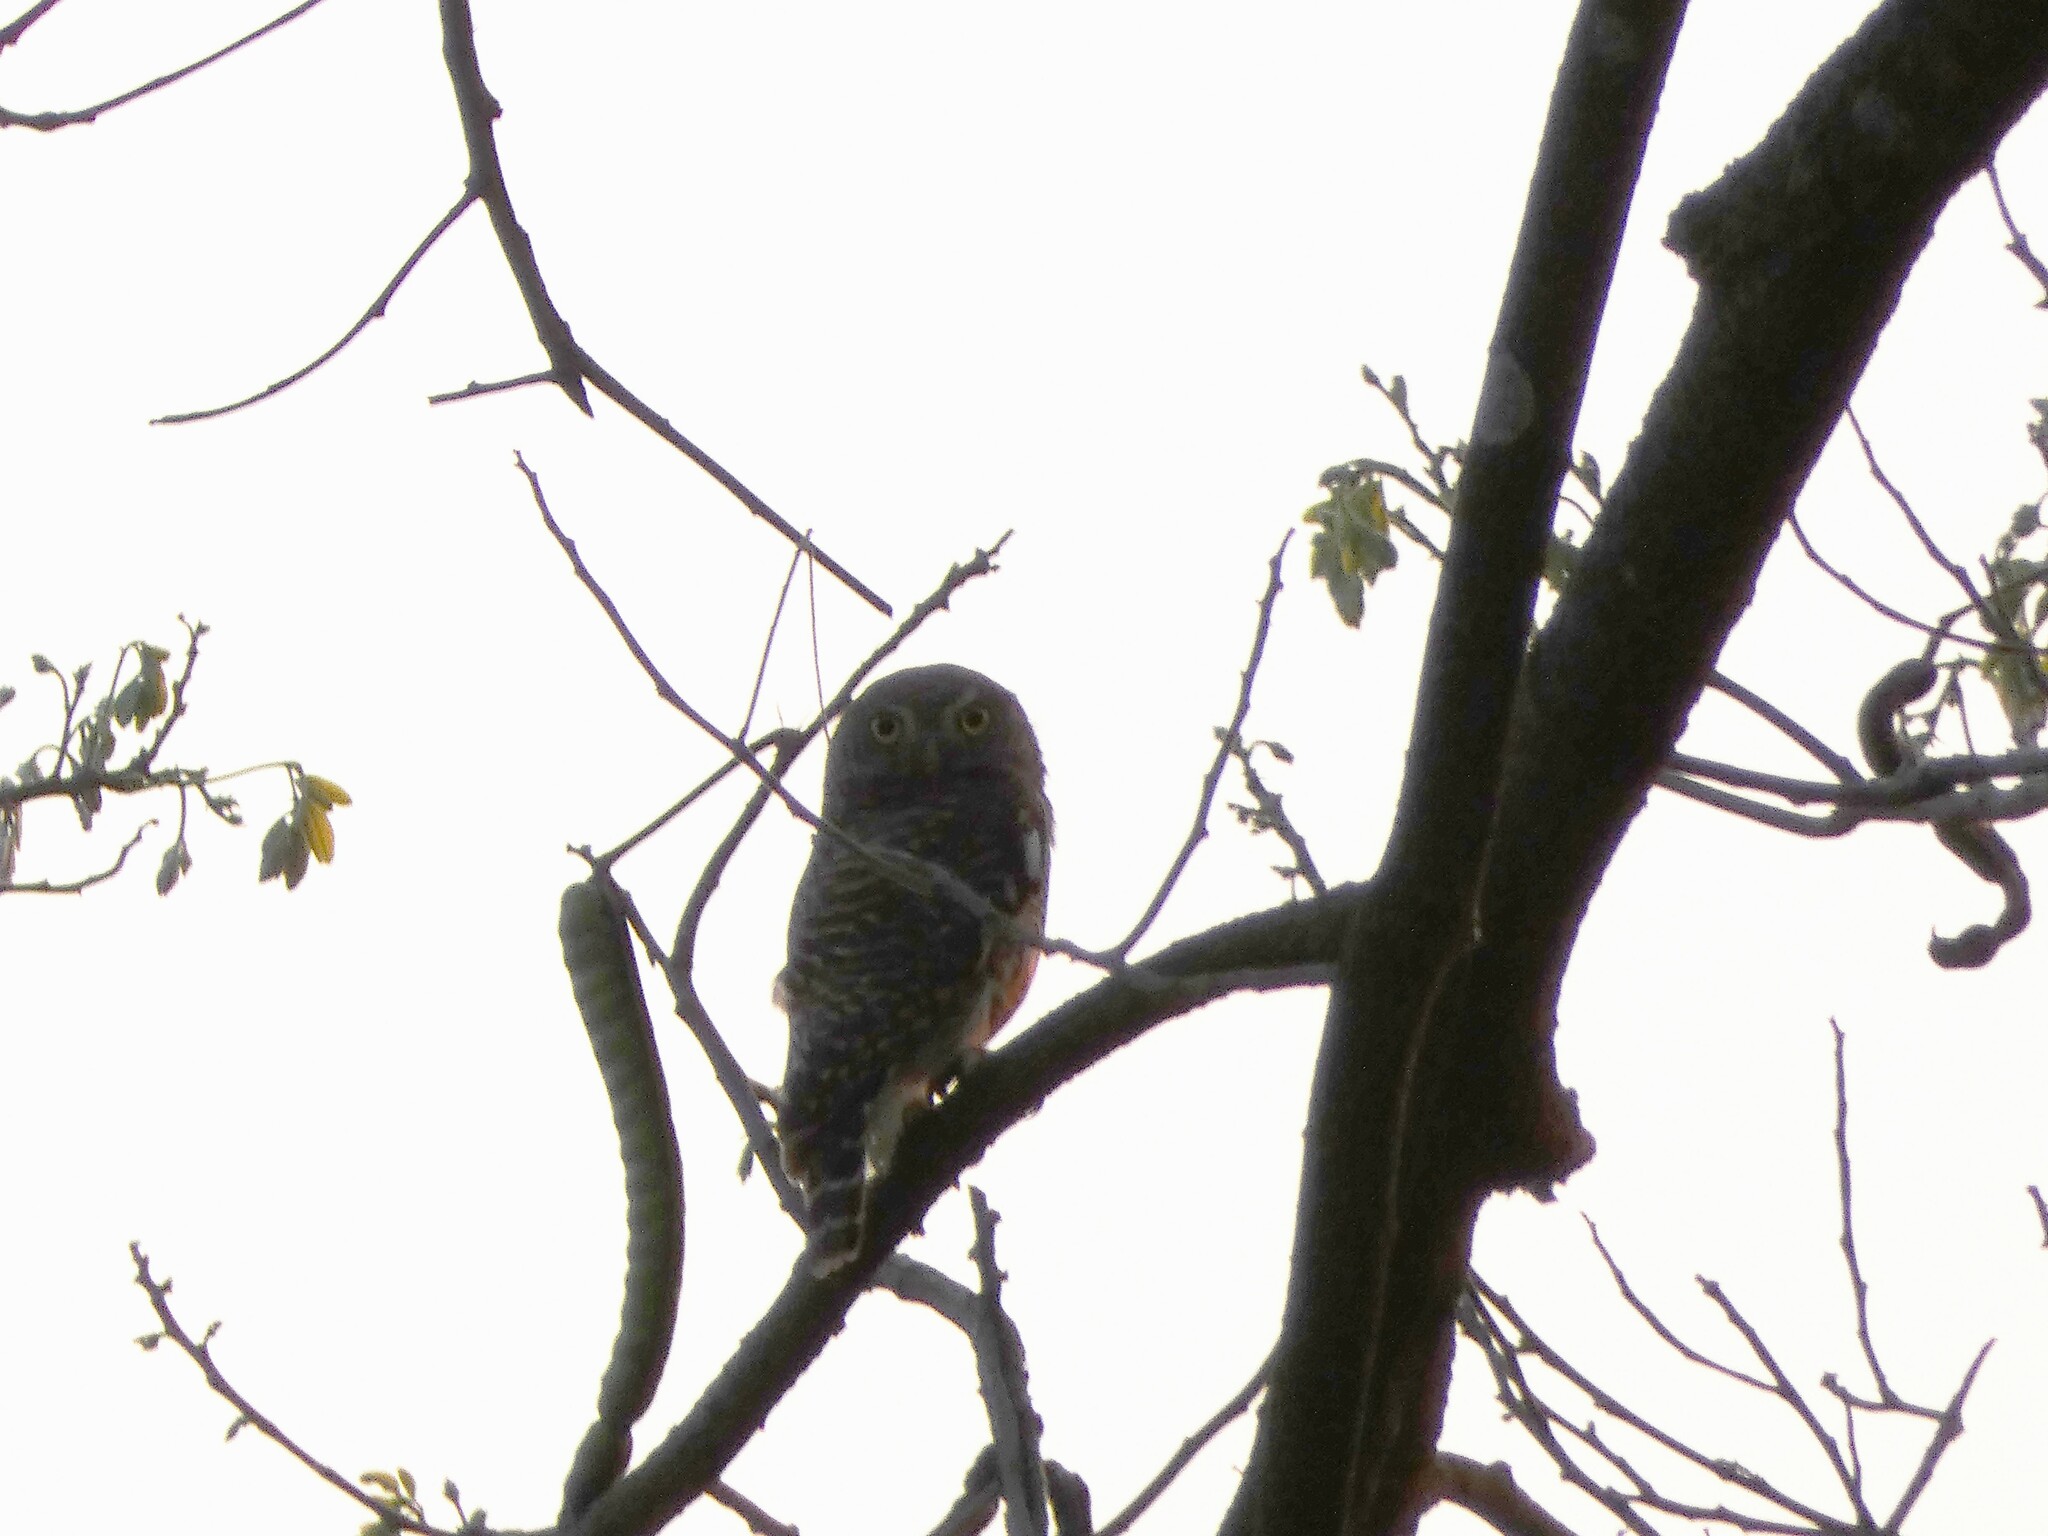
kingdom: Animalia
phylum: Chordata
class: Aves
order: Strigiformes
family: Strigidae
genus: Glaucidium
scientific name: Glaucidium cuculoides
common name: Asian barred owlet
